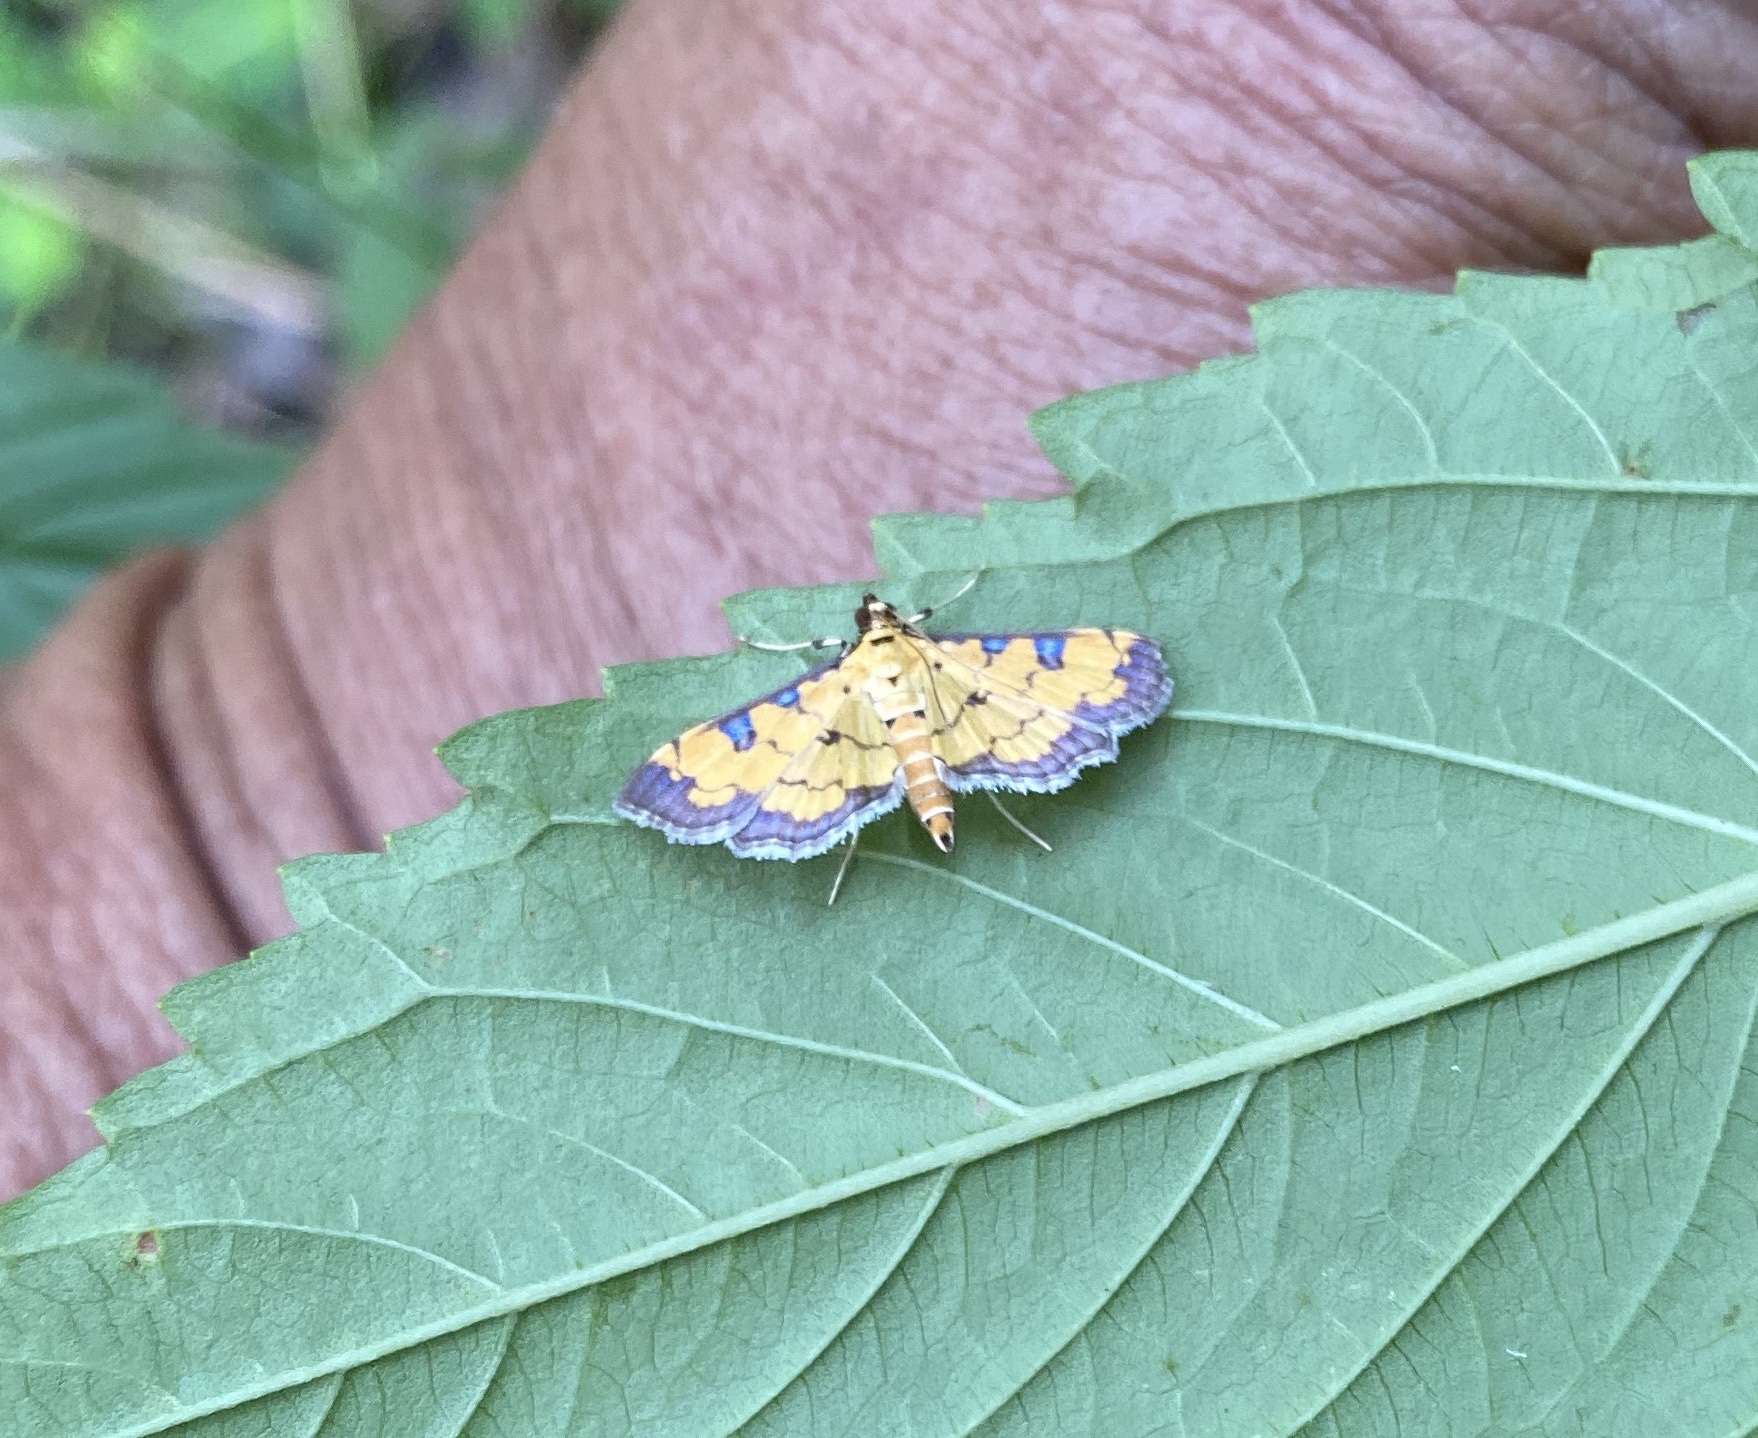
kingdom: Animalia
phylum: Arthropoda
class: Insecta
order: Lepidoptera
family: Crambidae
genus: Ategumia
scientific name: Ategumia ebulealis
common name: Moth
